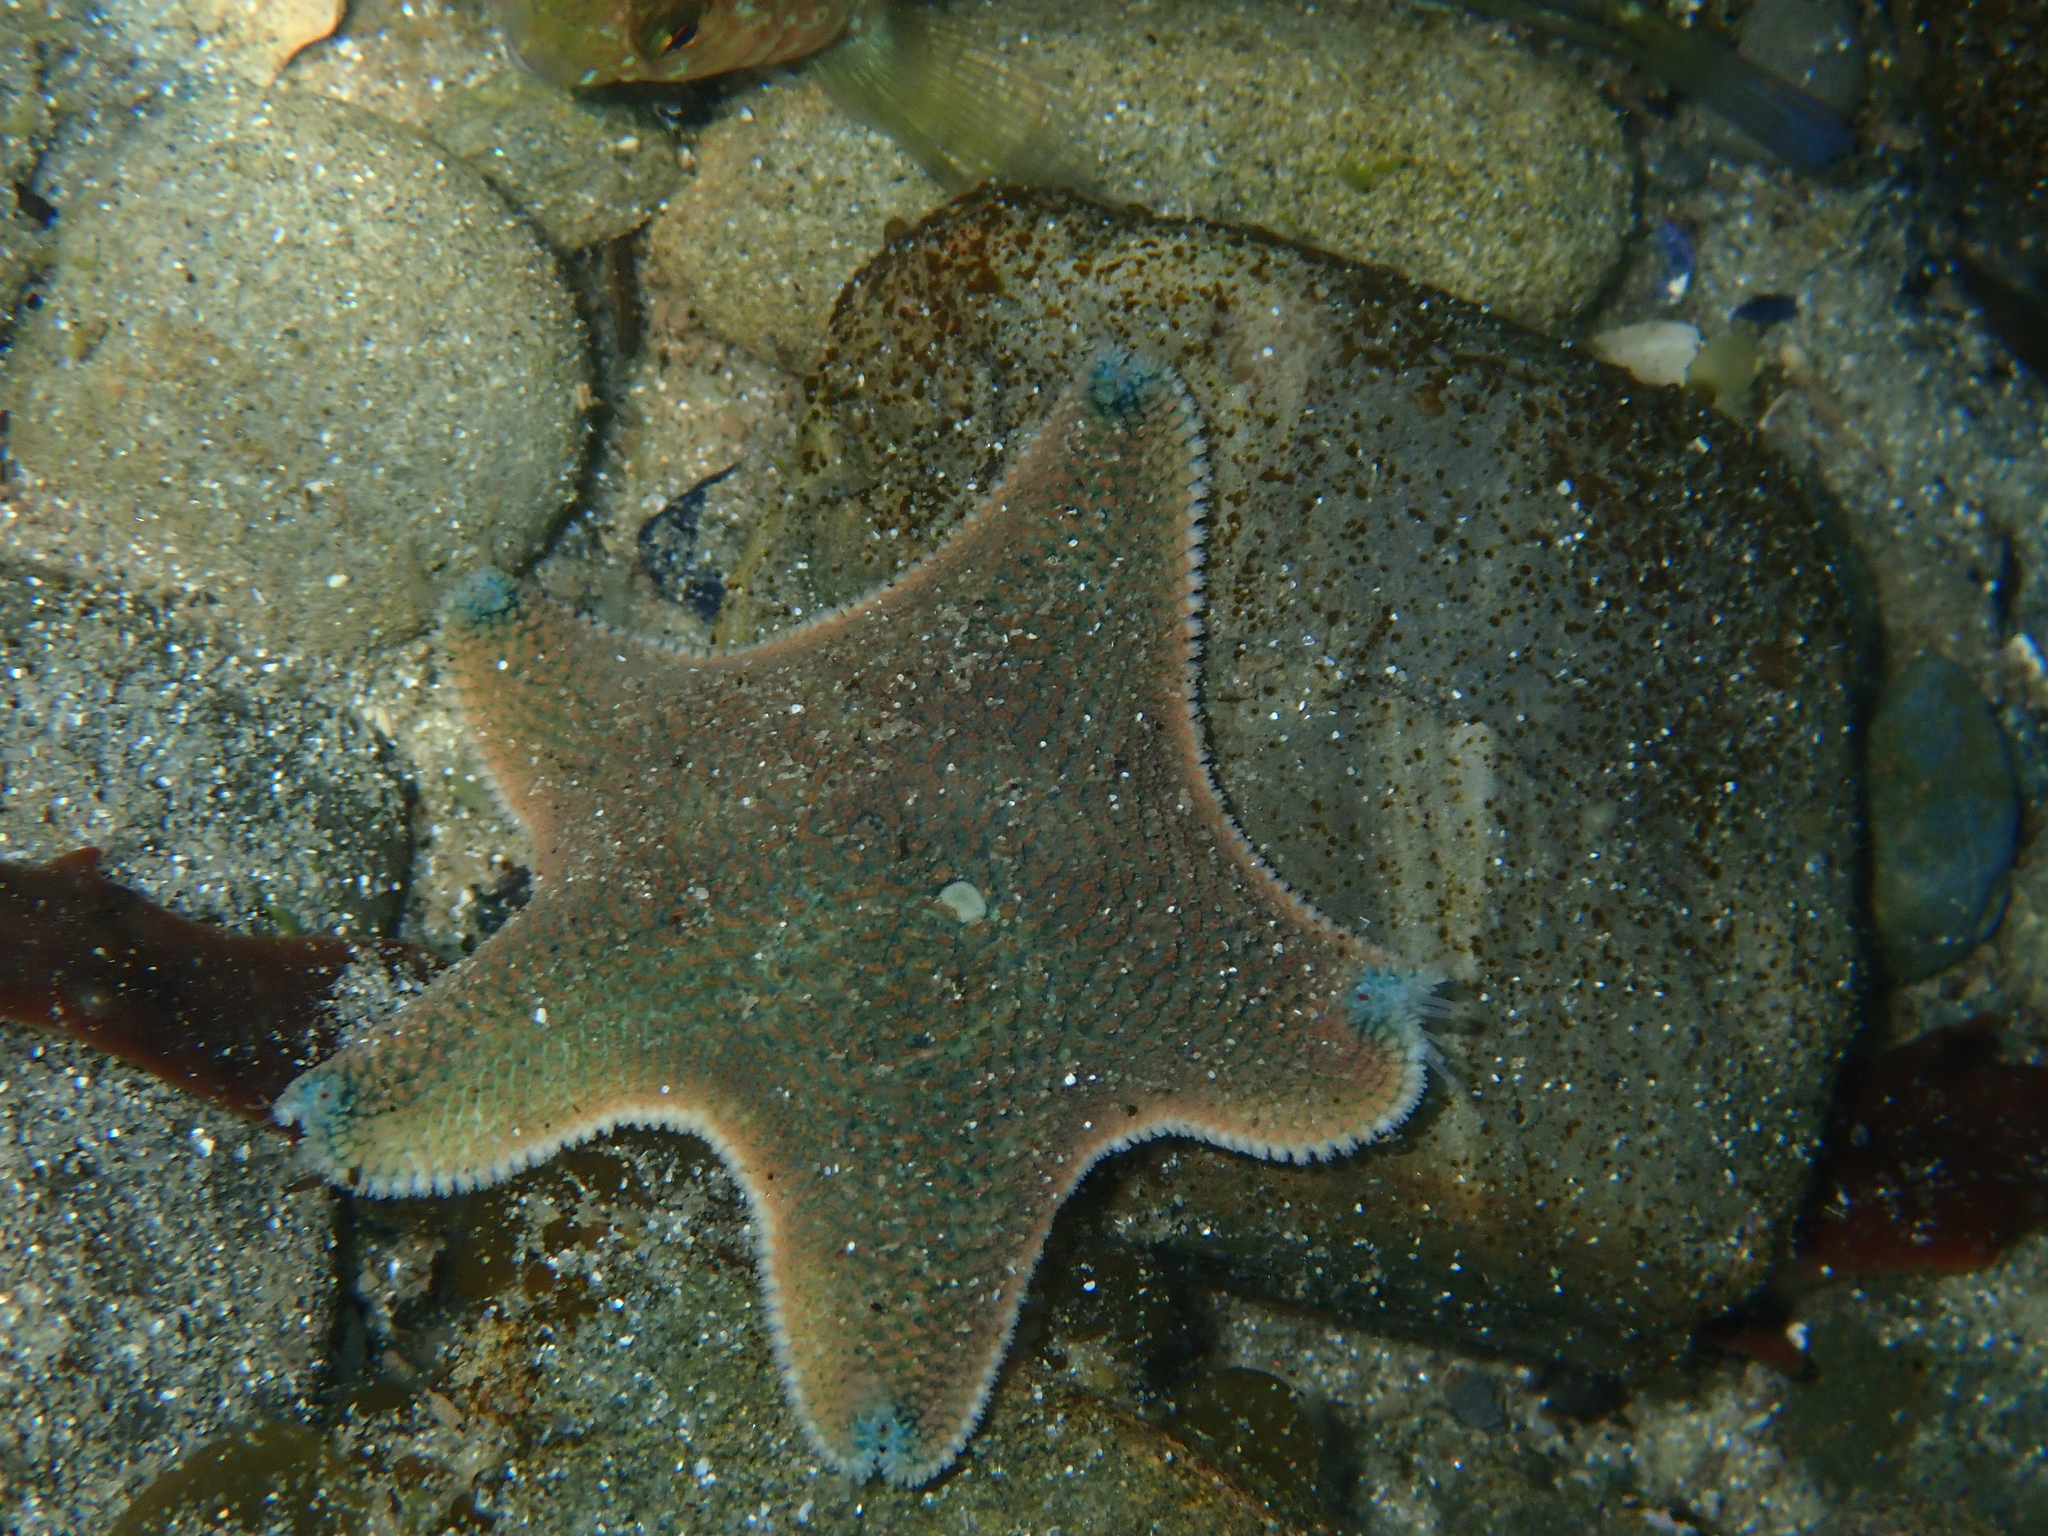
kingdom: Animalia
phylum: Echinodermata
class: Asteroidea
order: Valvatida
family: Asterinidae
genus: Patiriella
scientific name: Patiriella regularis
